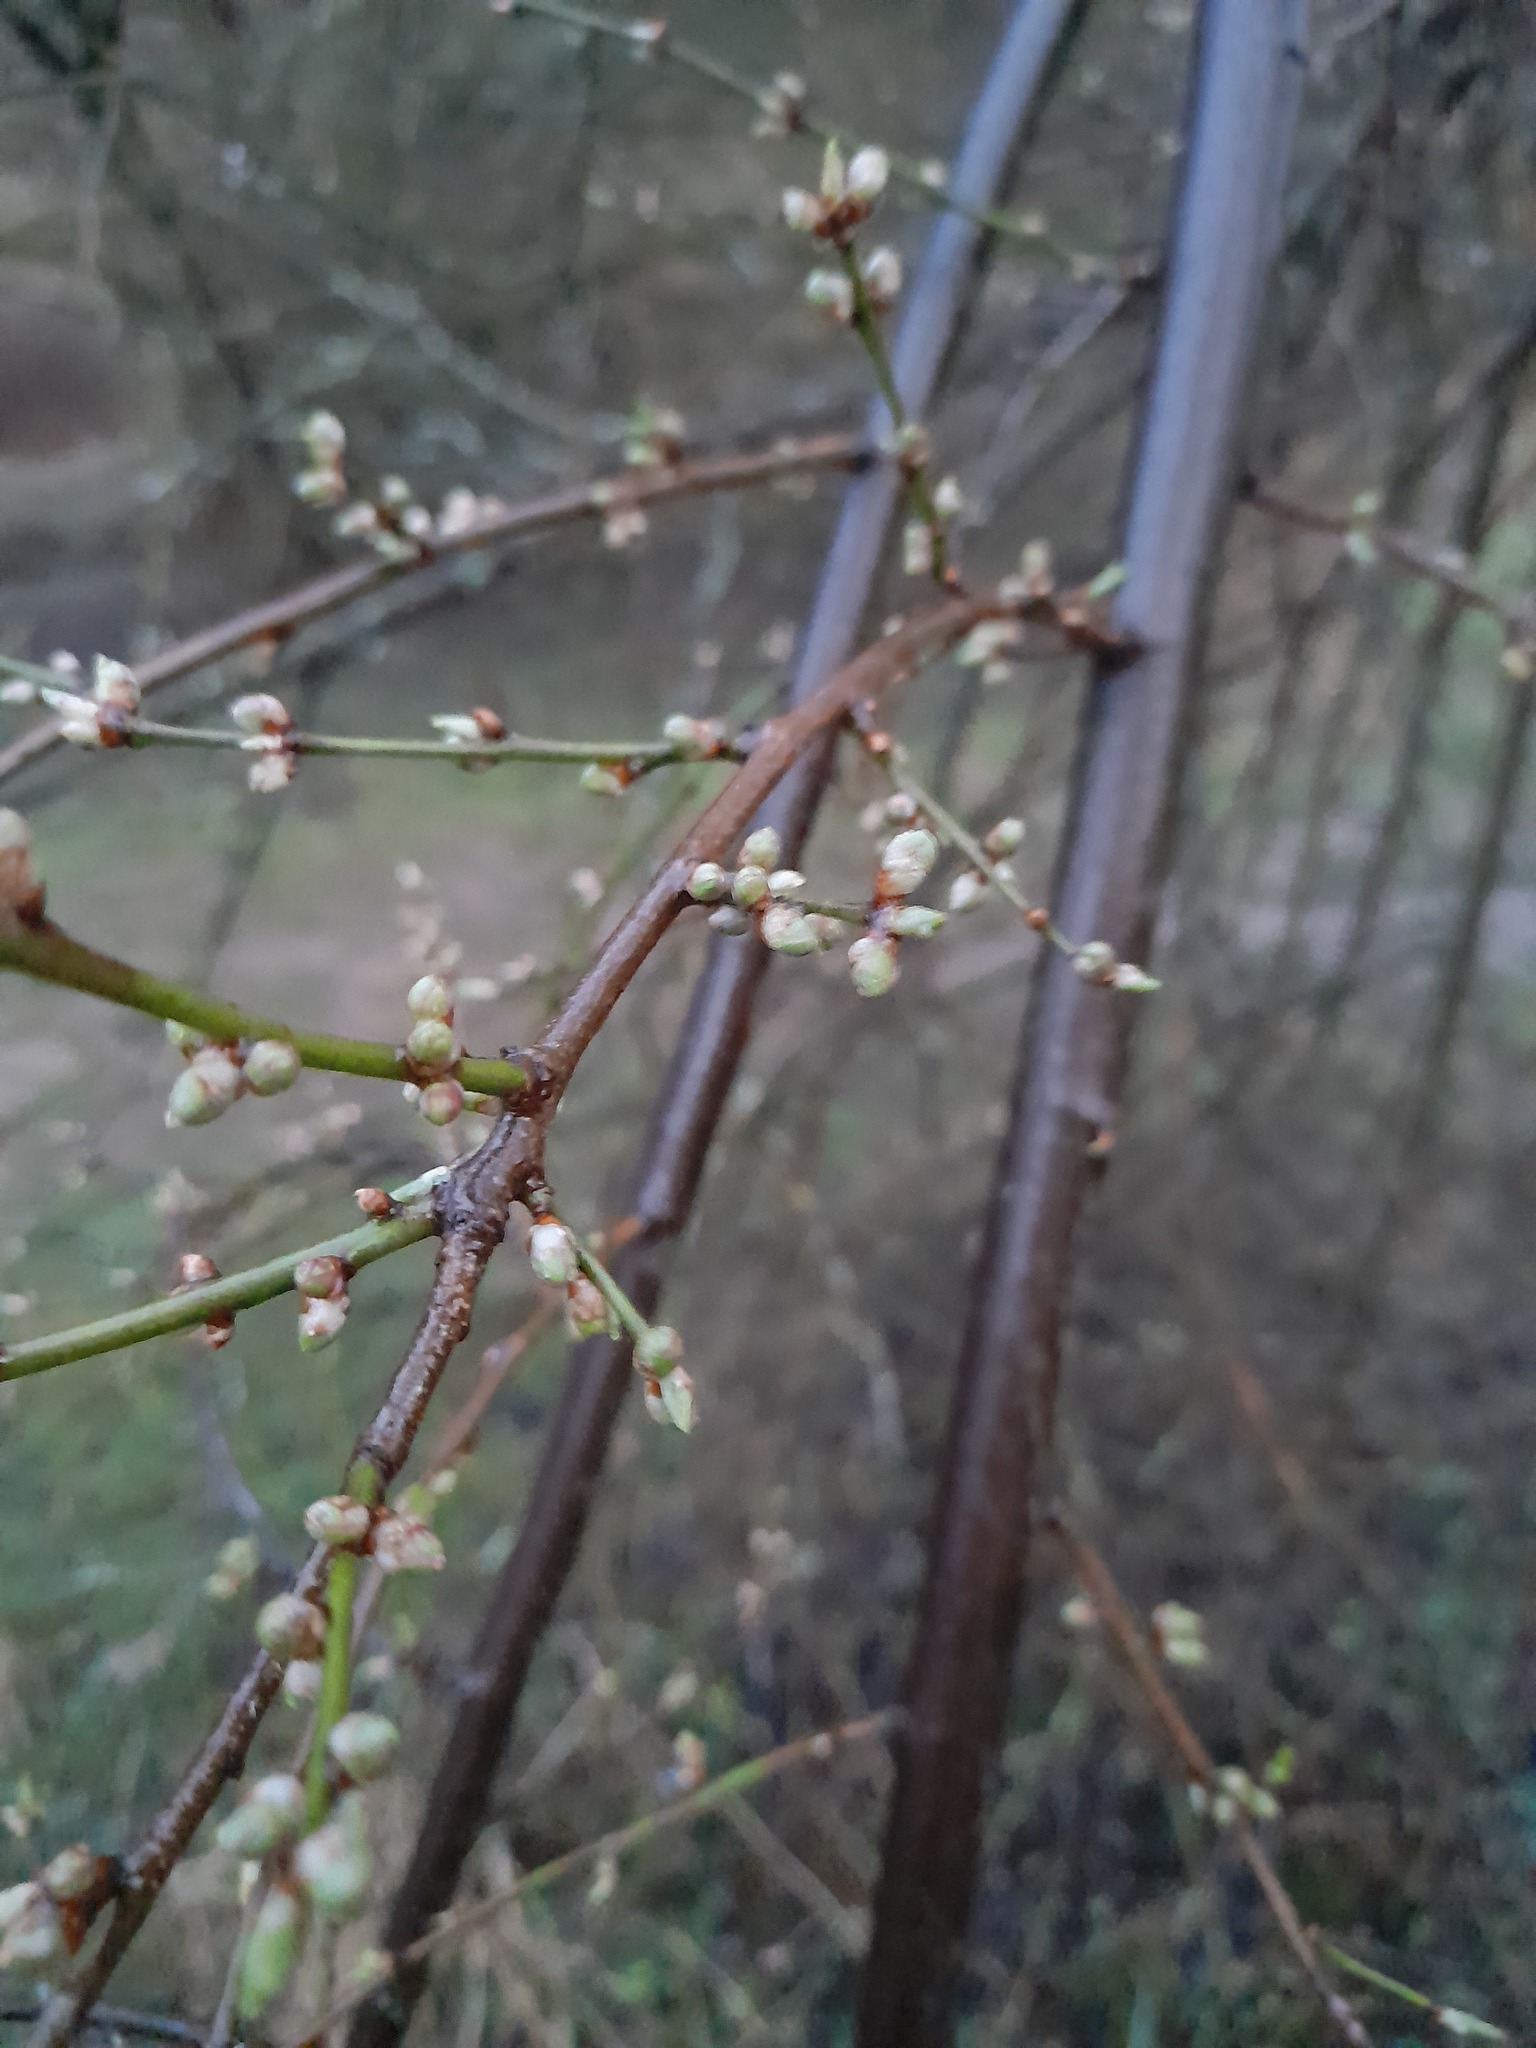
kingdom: Plantae
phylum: Tracheophyta
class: Magnoliopsida
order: Rosales
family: Rosaceae
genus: Prunus
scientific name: Prunus cerasifera
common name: Cherry plum
